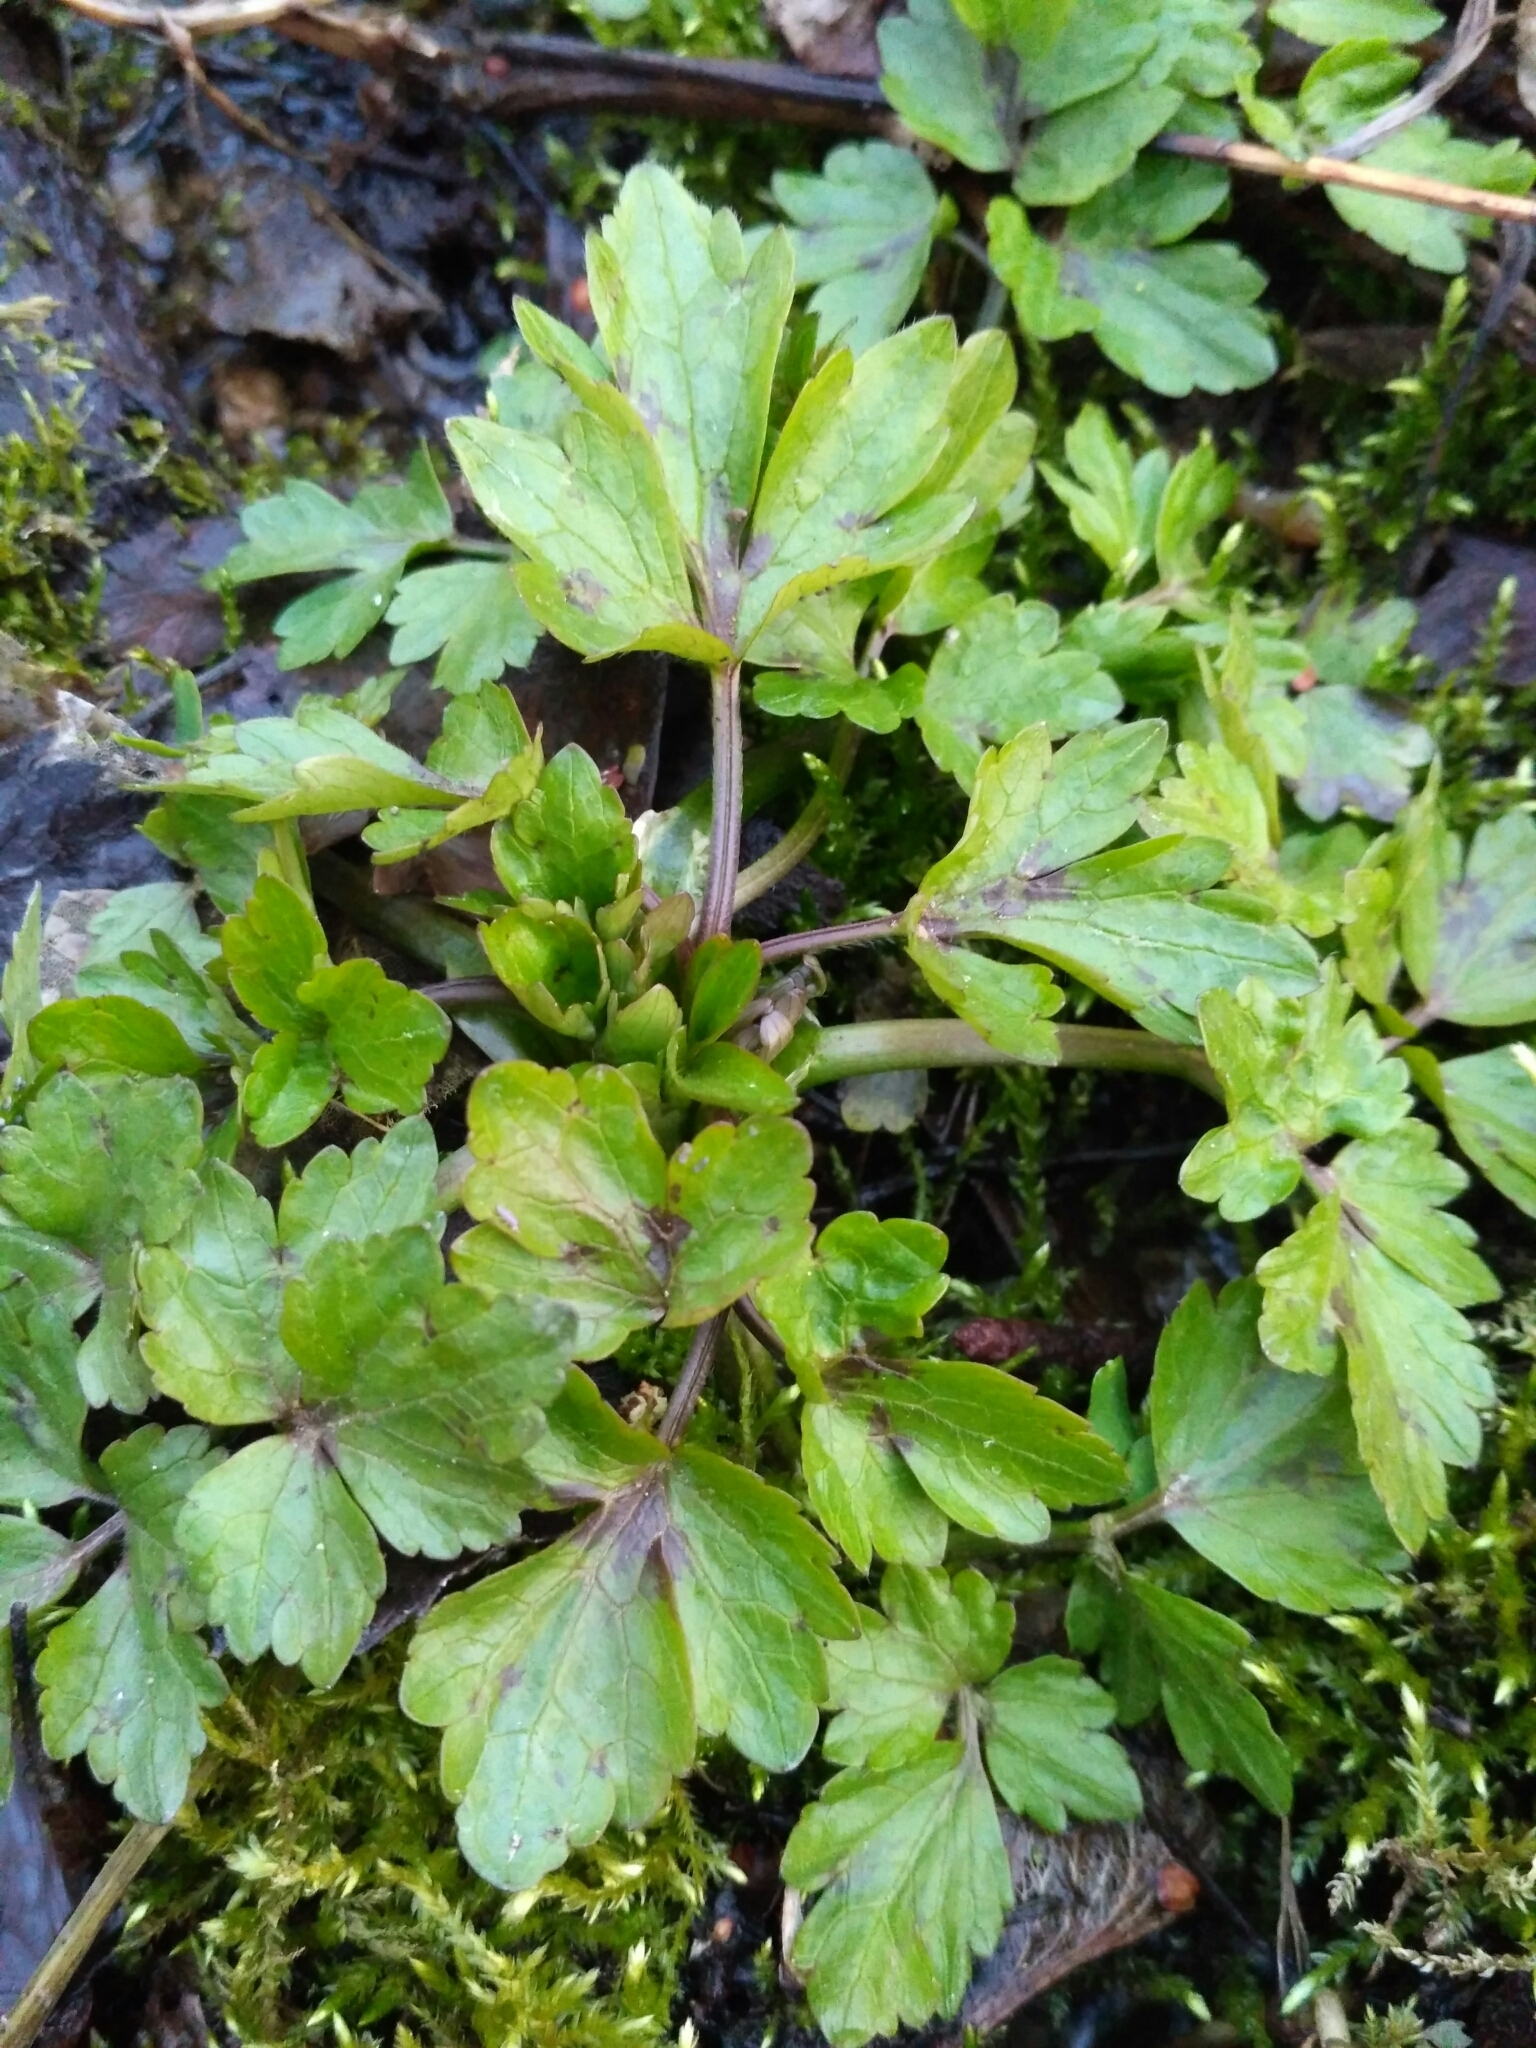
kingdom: Plantae
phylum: Tracheophyta
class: Magnoliopsida
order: Ranunculales
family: Ranunculaceae
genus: Ranunculus
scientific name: Ranunculus repens
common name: Creeping buttercup
